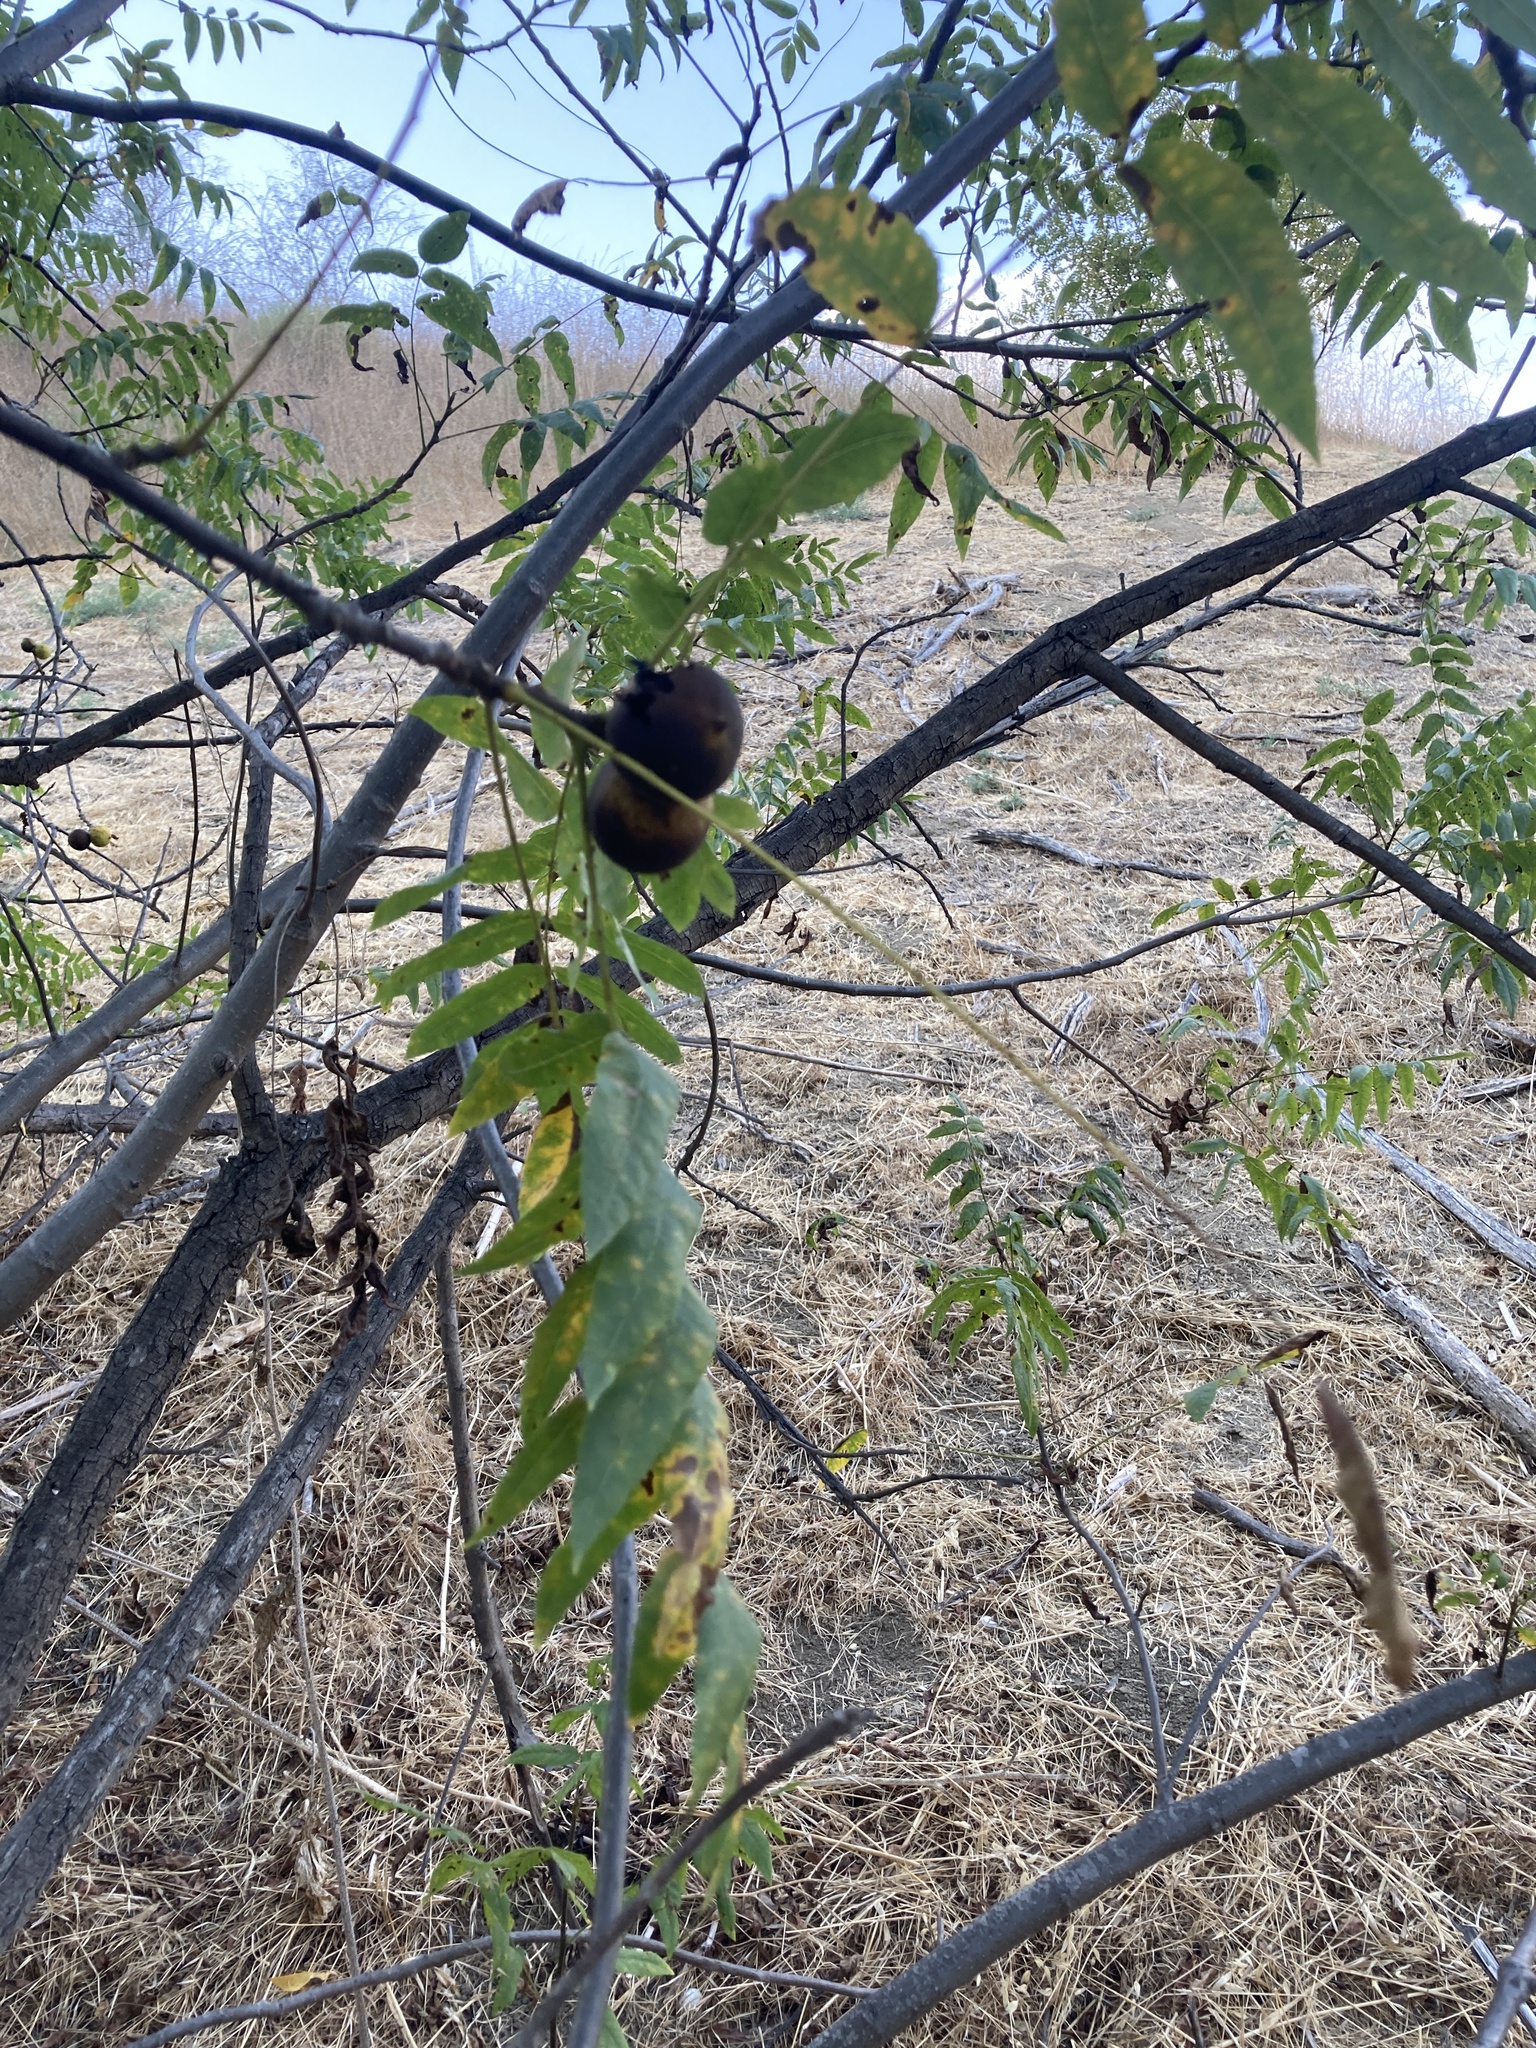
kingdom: Plantae
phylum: Tracheophyta
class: Magnoliopsida
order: Fagales
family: Juglandaceae
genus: Juglans
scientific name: Juglans californica
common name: Southern california black walnut
